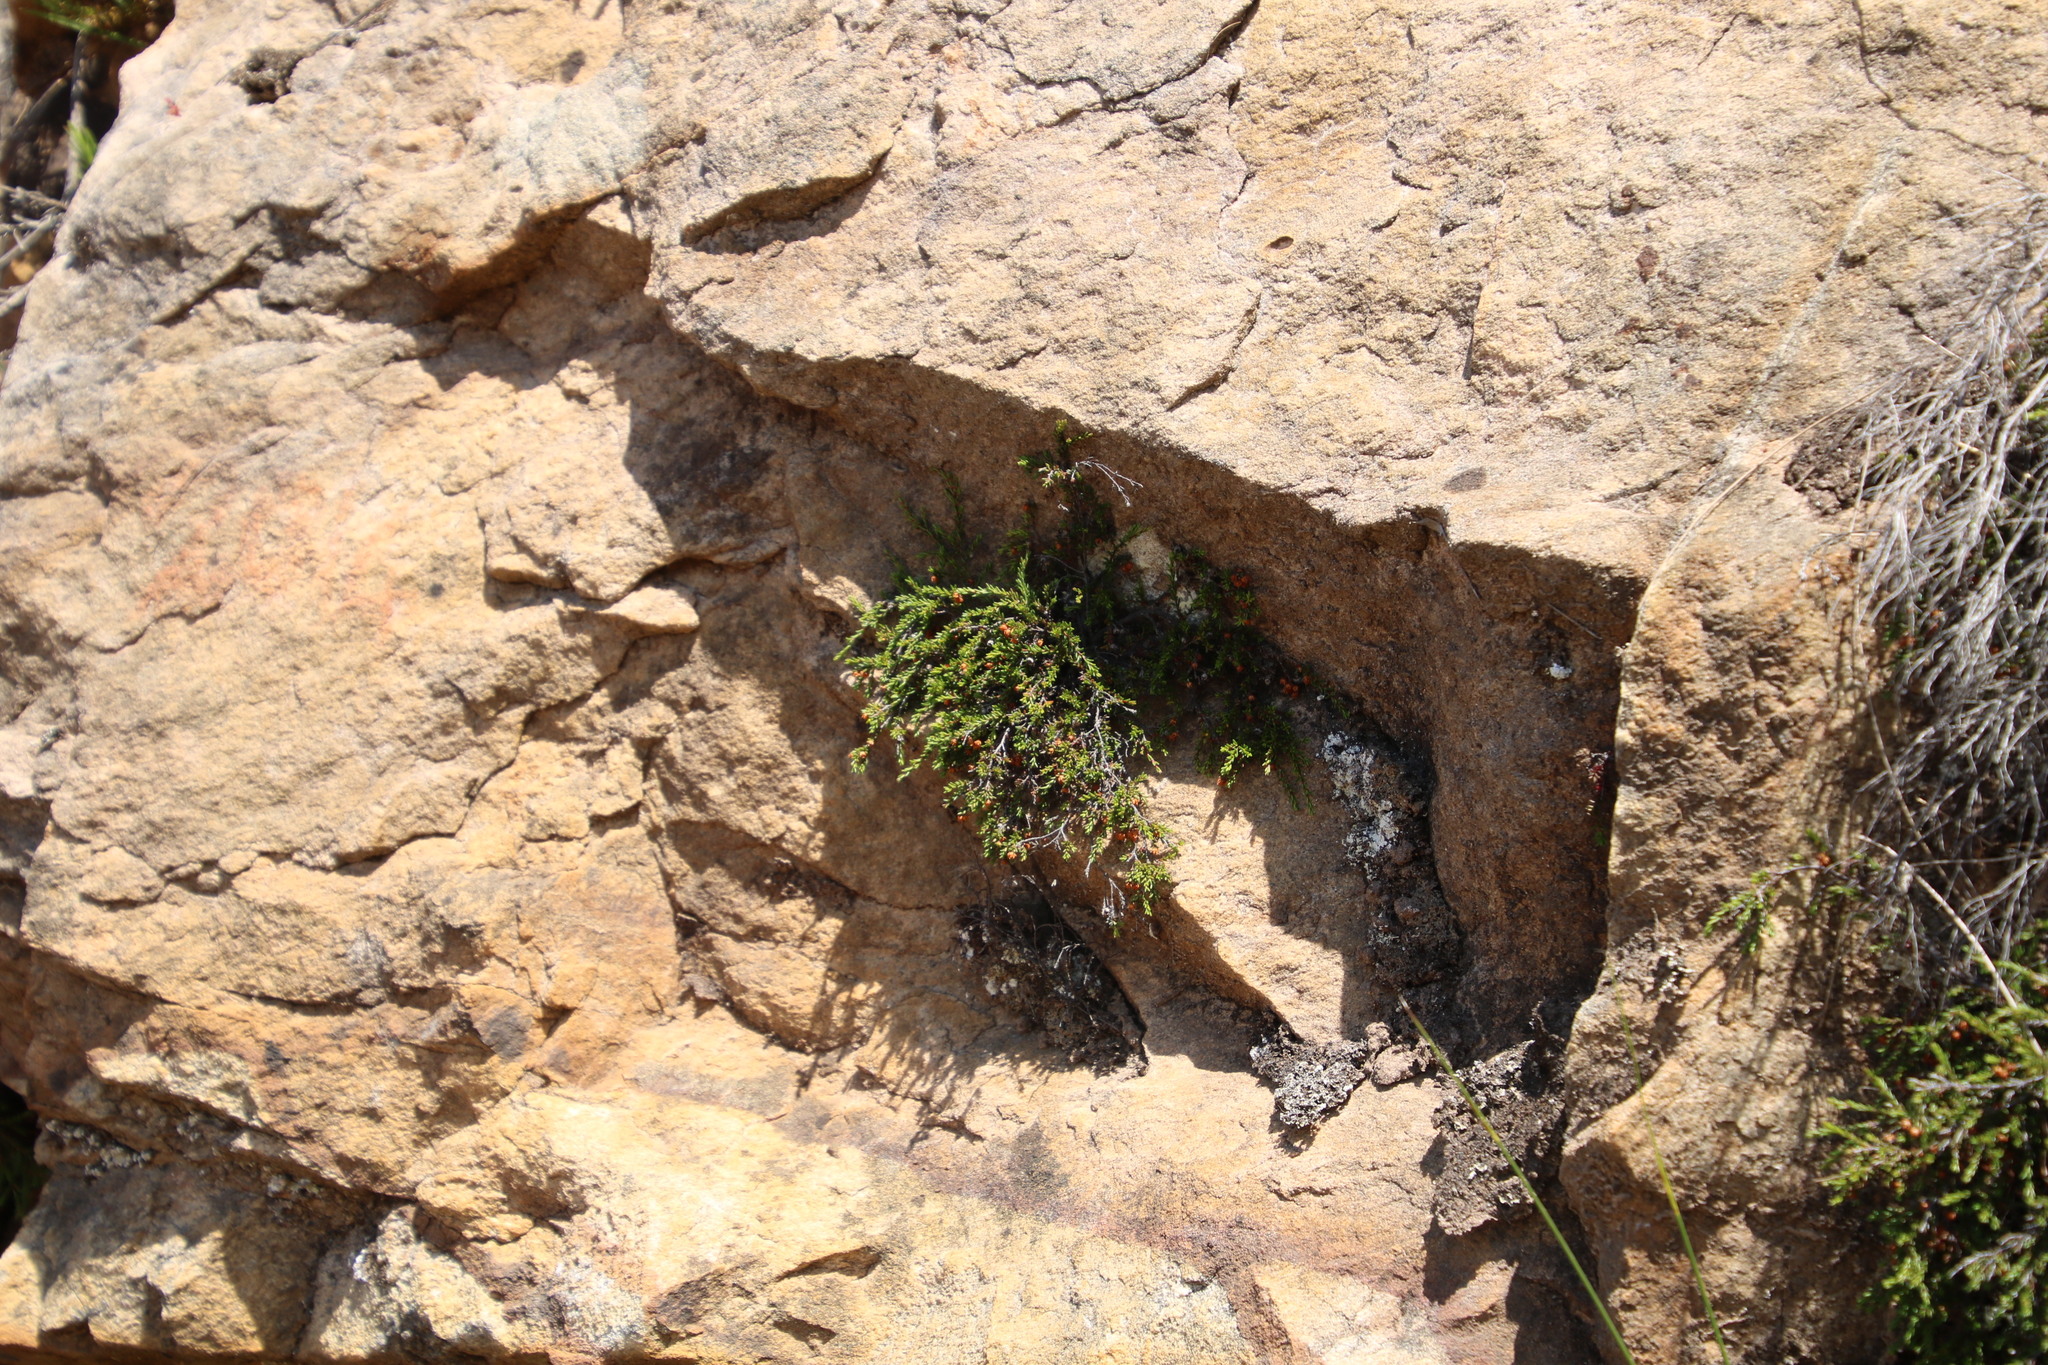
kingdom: Plantae
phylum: Tracheophyta
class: Magnoliopsida
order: Ericales
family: Ericaceae
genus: Erica
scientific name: Erica tenuis
